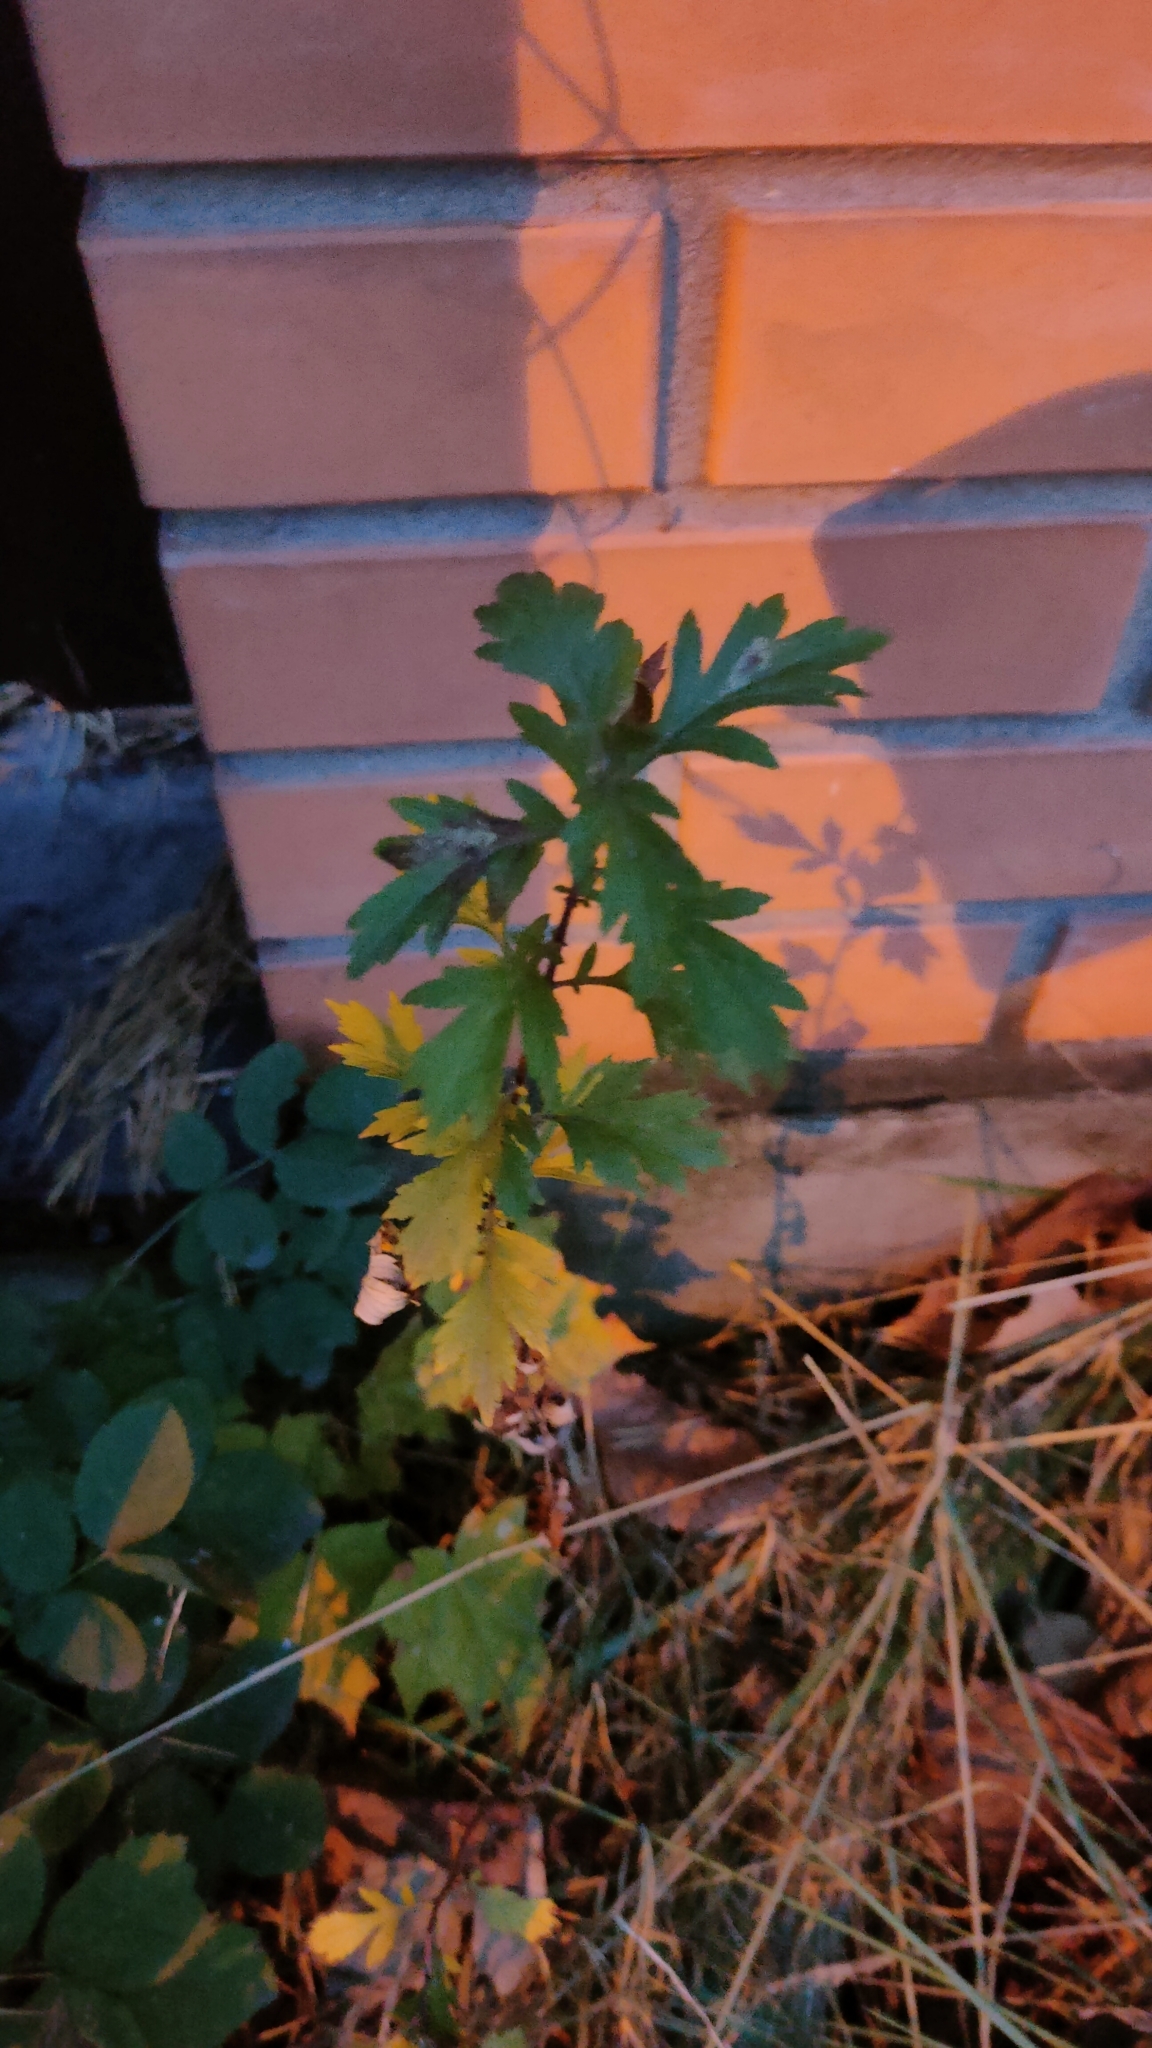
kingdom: Plantae
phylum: Tracheophyta
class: Magnoliopsida
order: Asterales
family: Asteraceae
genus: Artemisia
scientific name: Artemisia vulgaris
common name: Mugwort
